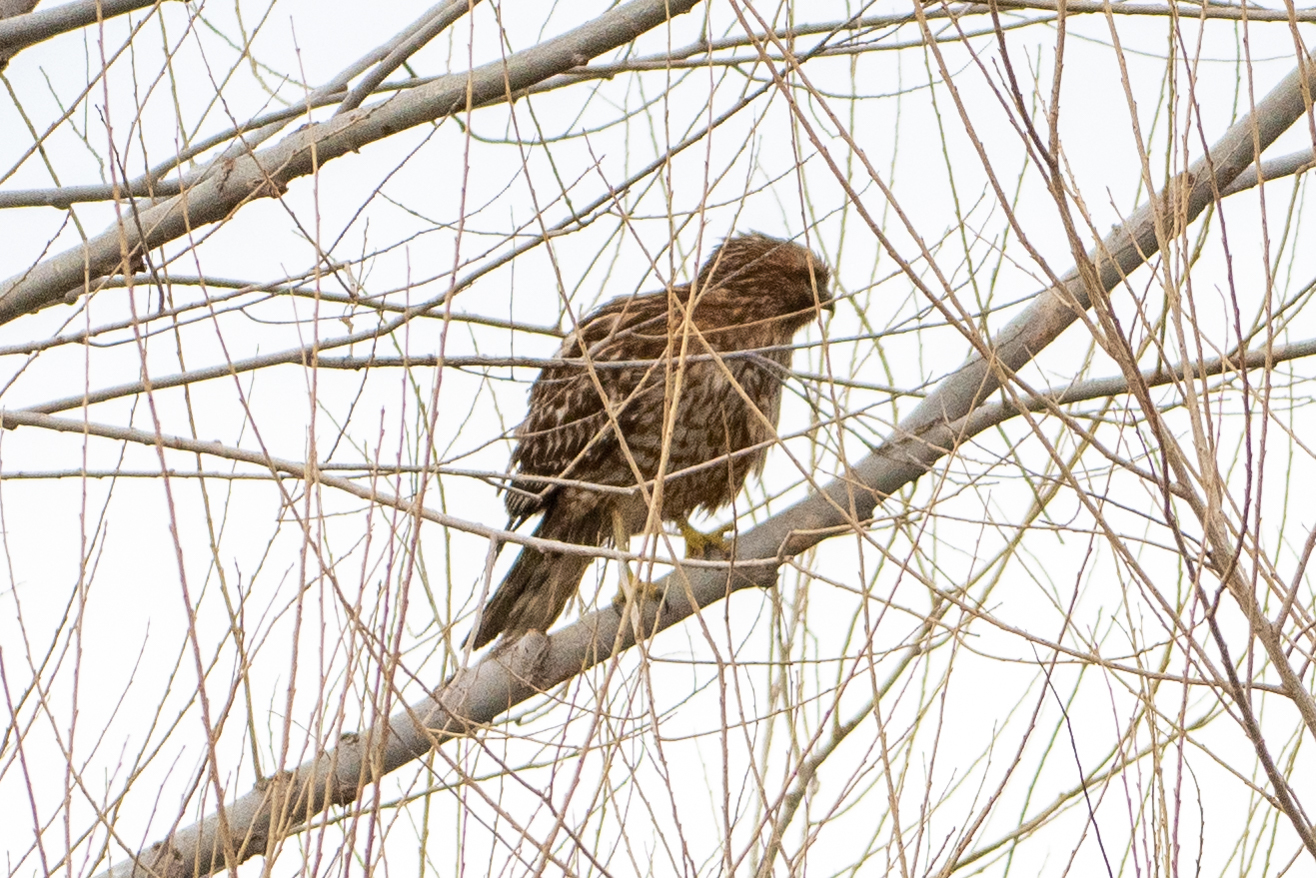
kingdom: Animalia
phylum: Chordata
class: Aves
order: Accipitriformes
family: Accipitridae
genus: Buteo
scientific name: Buteo lineatus
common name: Red-shouldered hawk
